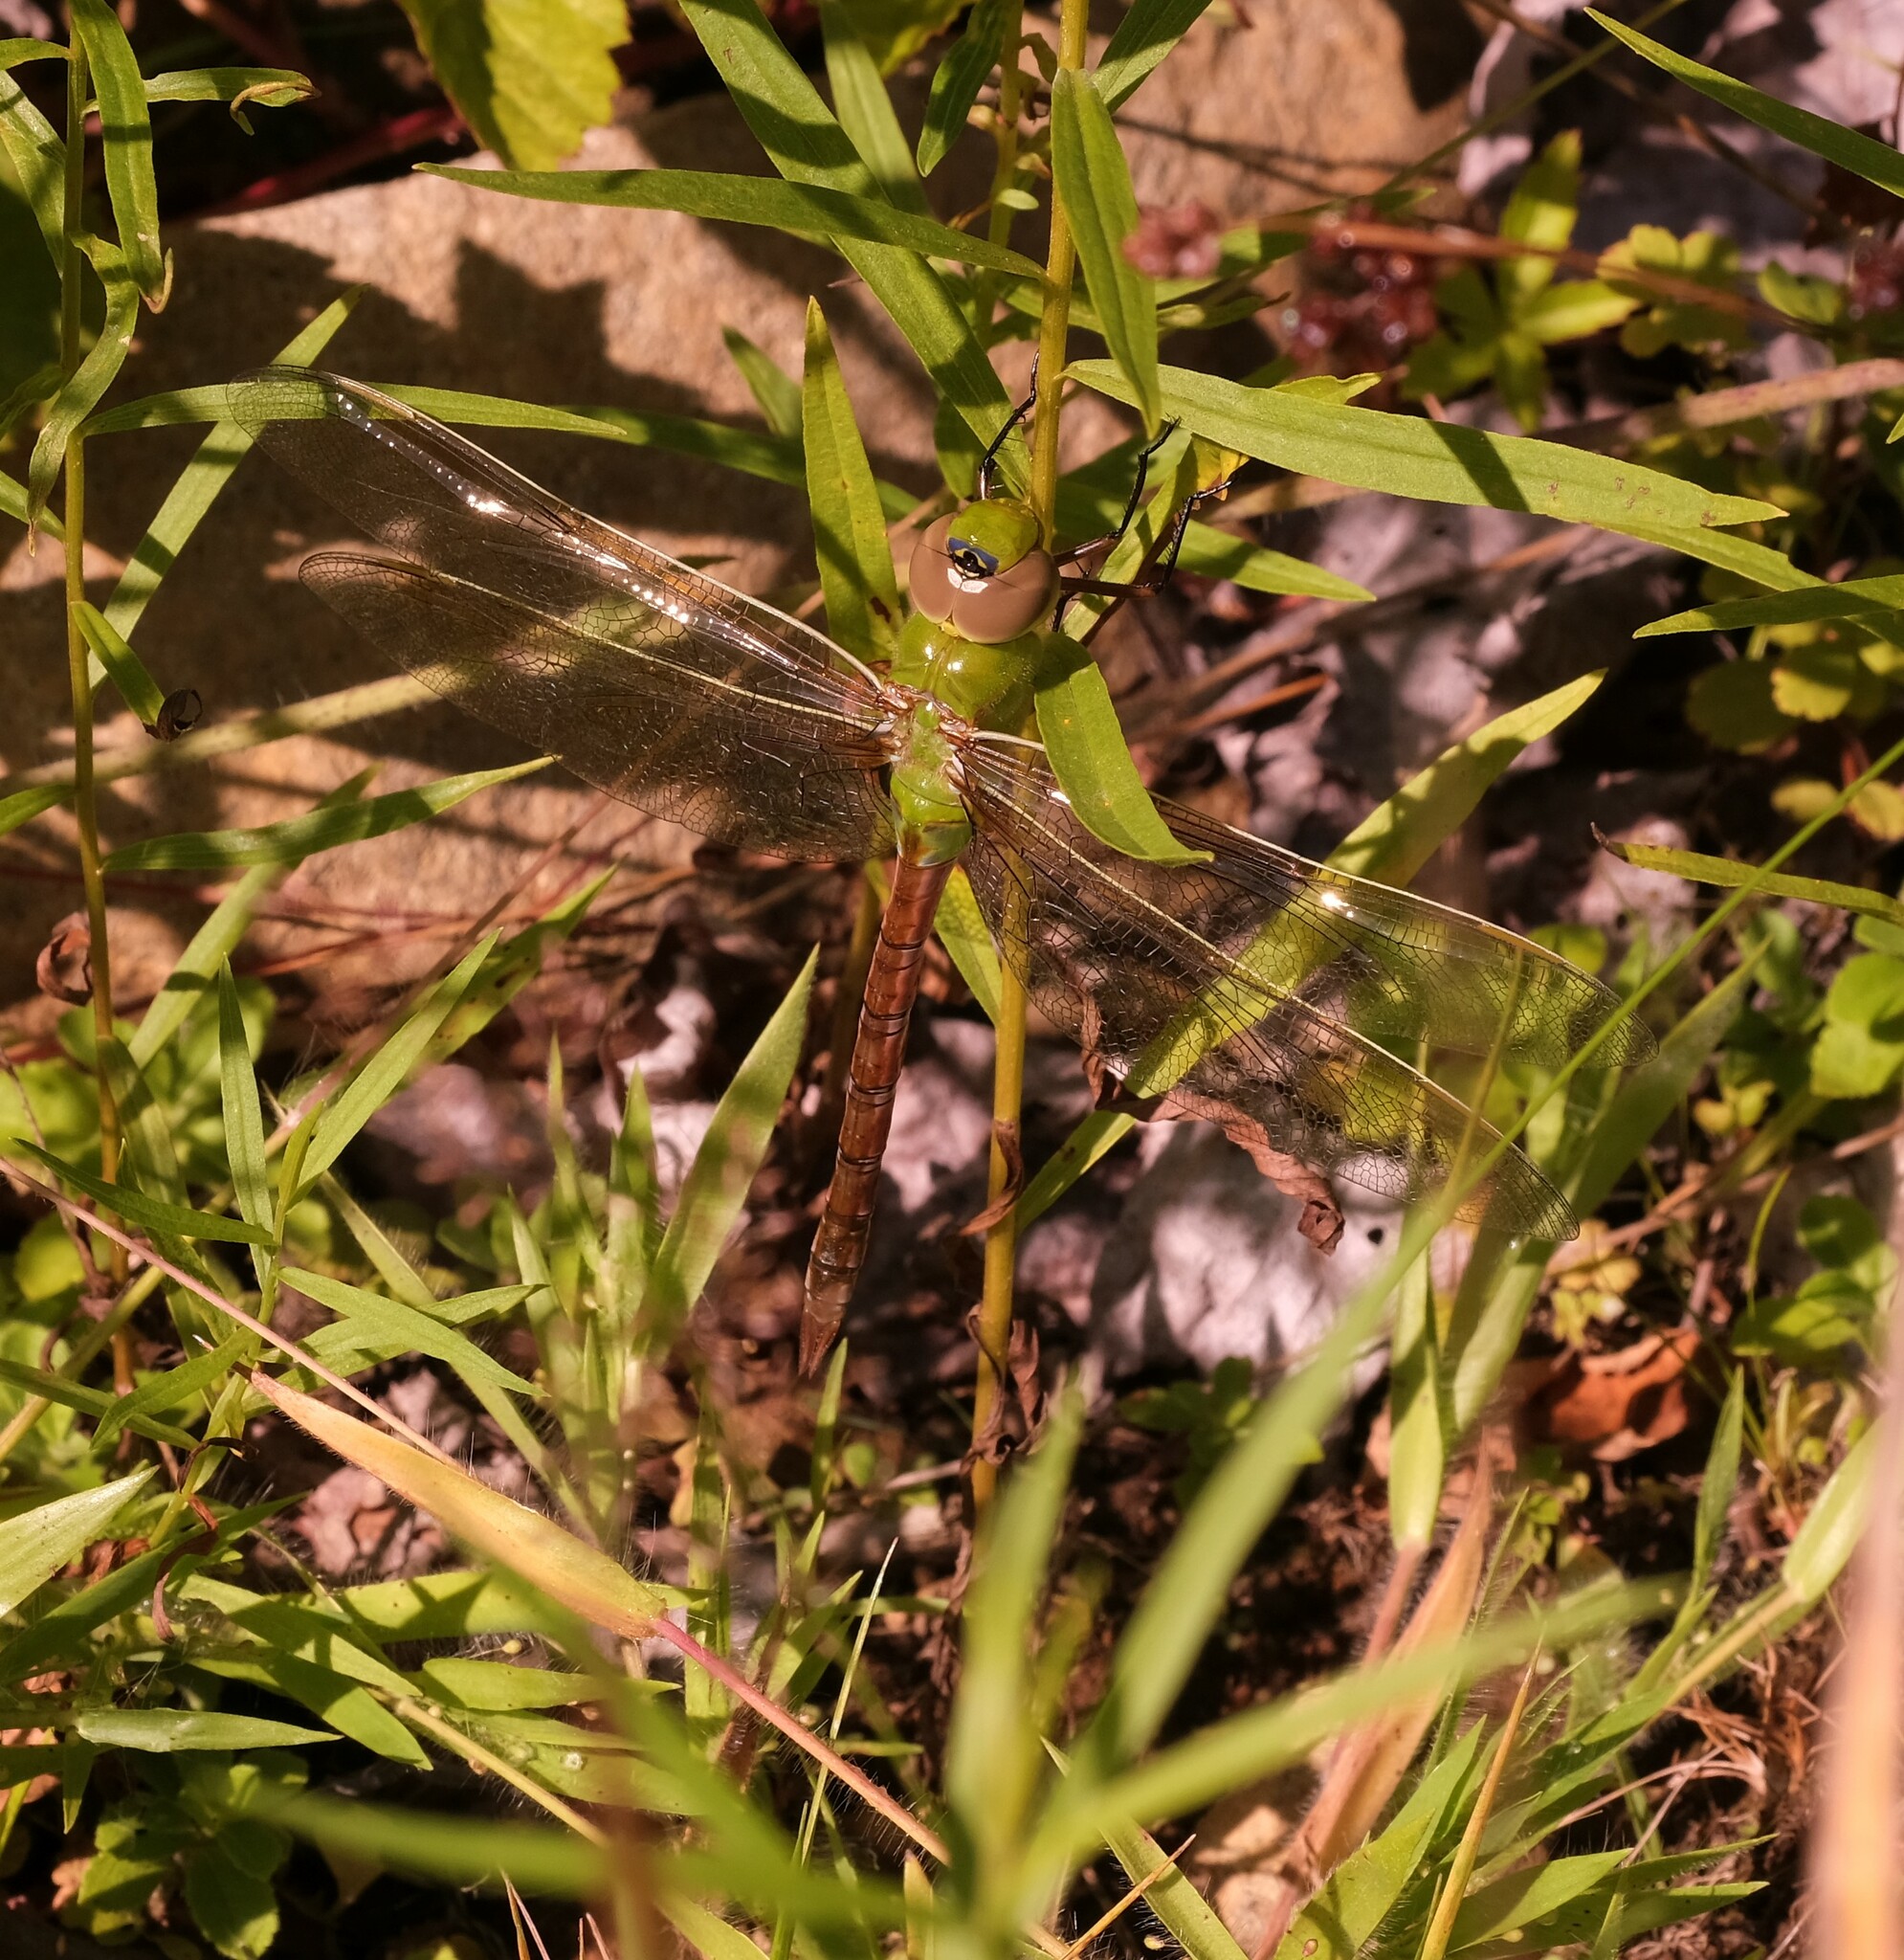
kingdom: Animalia
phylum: Arthropoda
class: Insecta
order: Odonata
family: Aeshnidae
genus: Anax
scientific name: Anax junius
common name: Common green darner
